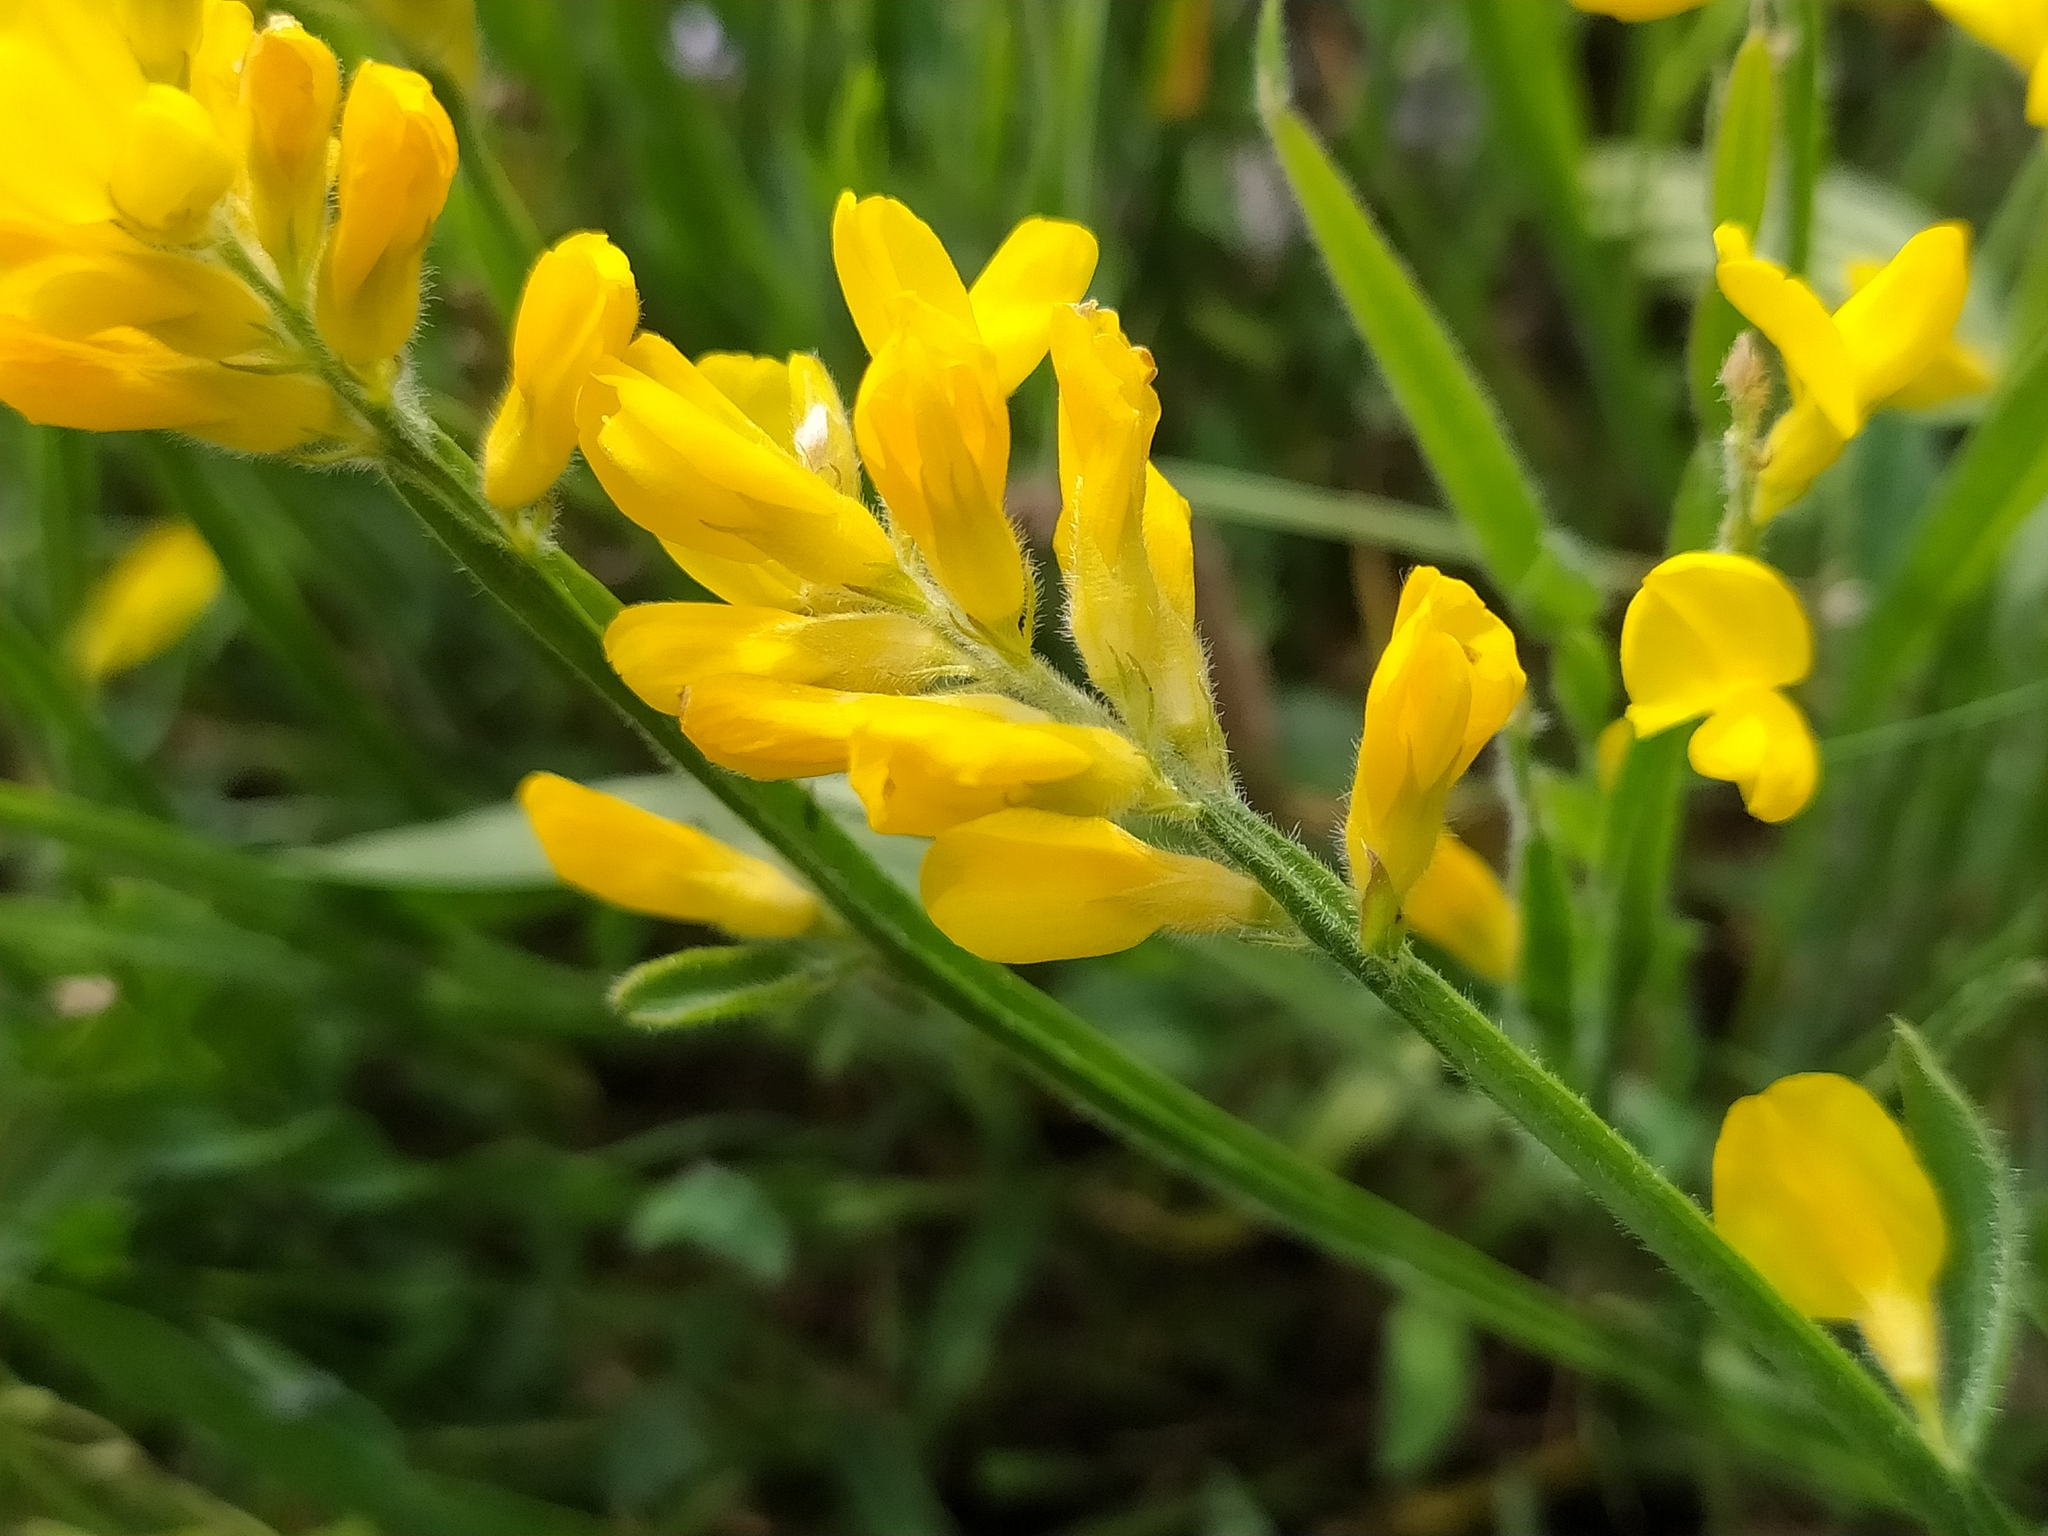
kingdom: Plantae
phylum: Tracheophyta
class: Magnoliopsida
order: Fabales
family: Fabaceae
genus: Genista
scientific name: Genista sagittalis
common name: Winged greenweed
